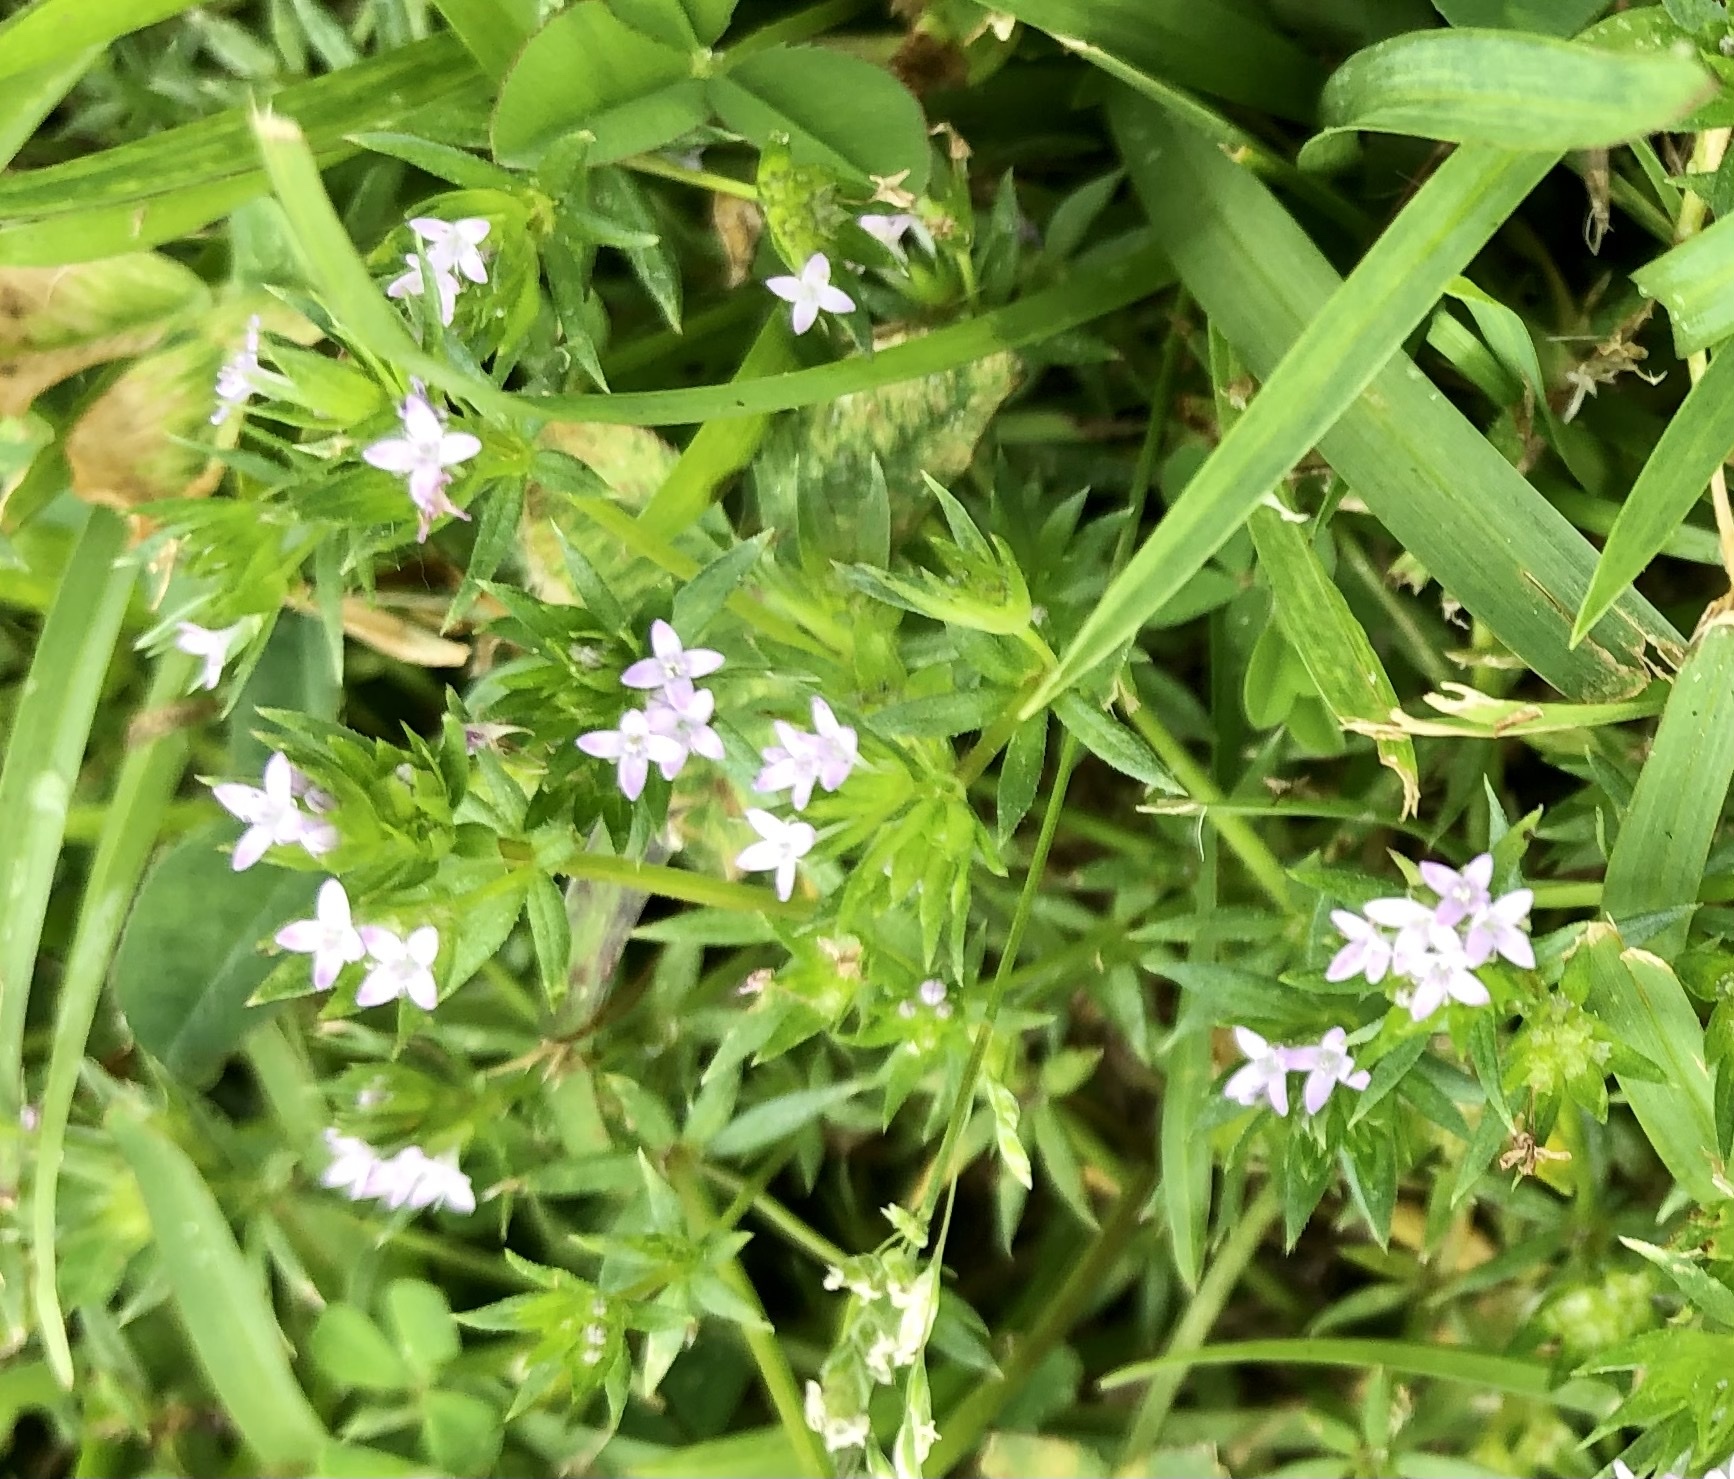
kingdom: Plantae
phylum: Tracheophyta
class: Magnoliopsida
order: Gentianales
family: Rubiaceae
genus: Sherardia
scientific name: Sherardia arvensis
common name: Field madder
